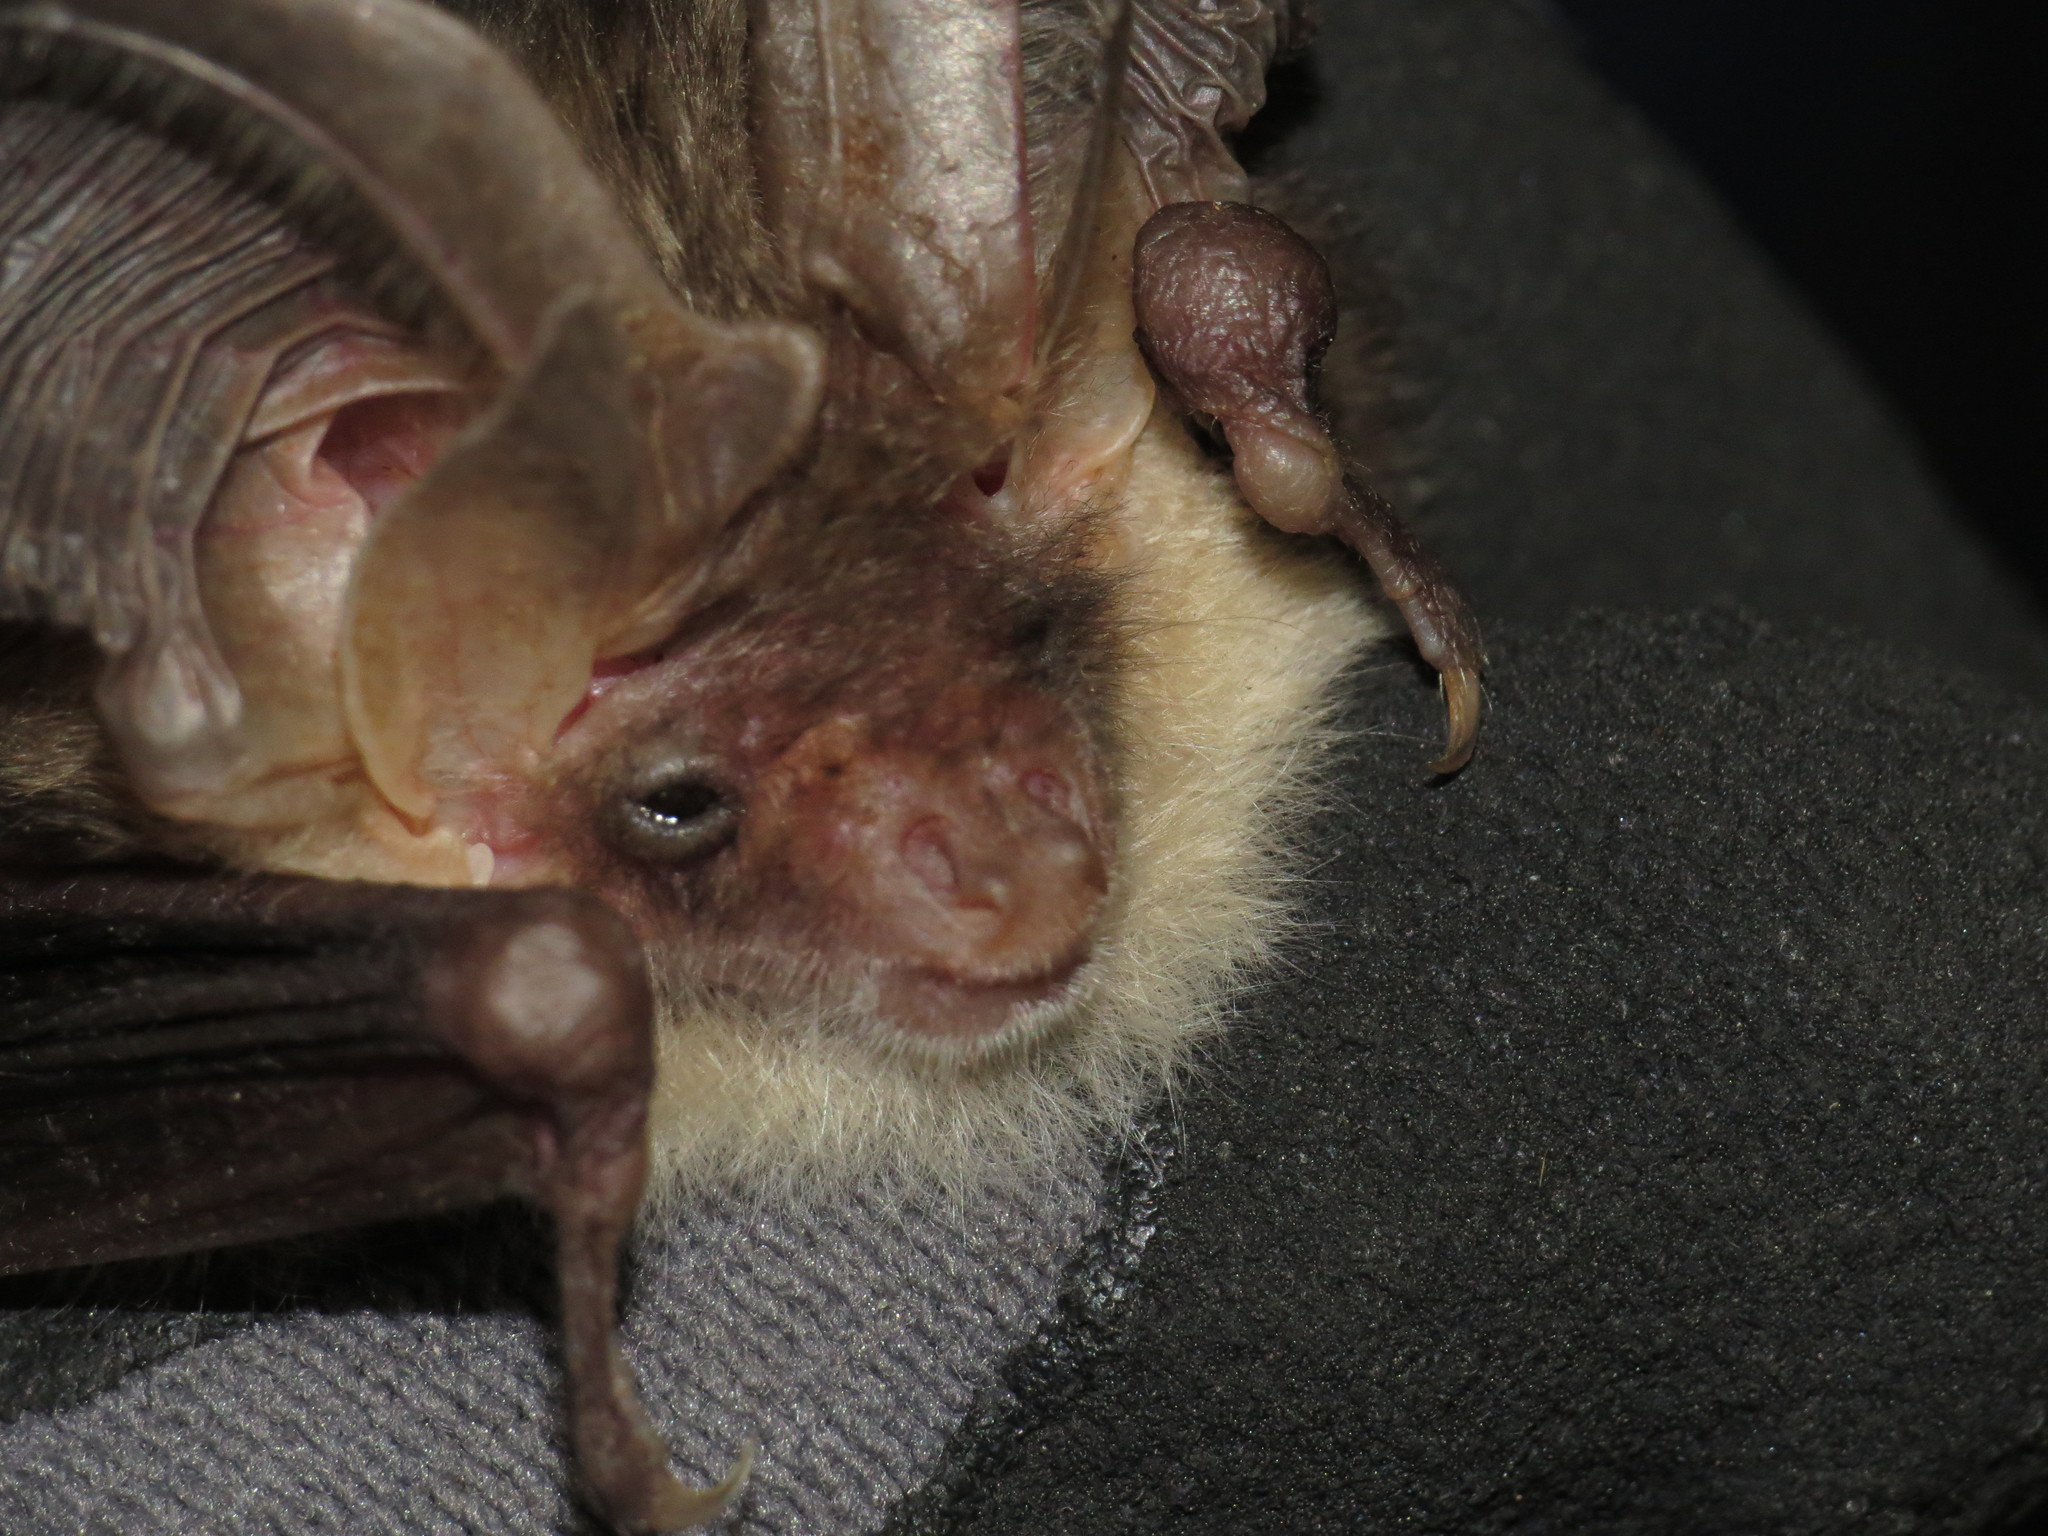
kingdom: Animalia
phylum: Chordata
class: Mammalia
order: Chiroptera
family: Vespertilionidae
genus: Plecotus
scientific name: Plecotus auritus
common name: Brown long-eared bat
